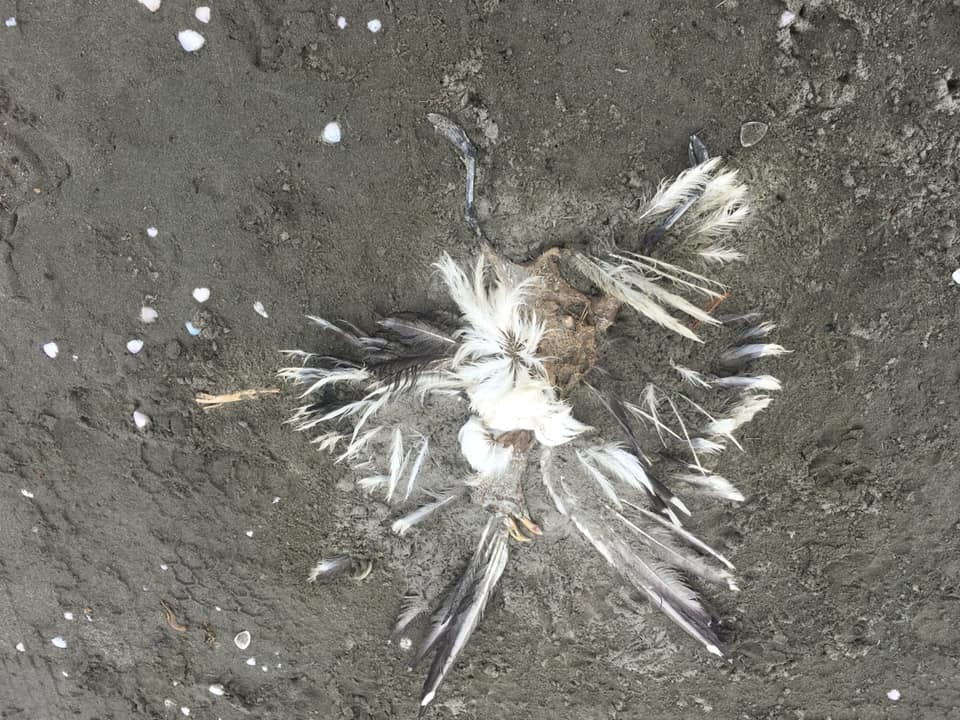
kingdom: Animalia
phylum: Chordata
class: Aves
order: Charadriiformes
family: Laridae
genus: Larus
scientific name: Larus dominicanus
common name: Kelp gull
